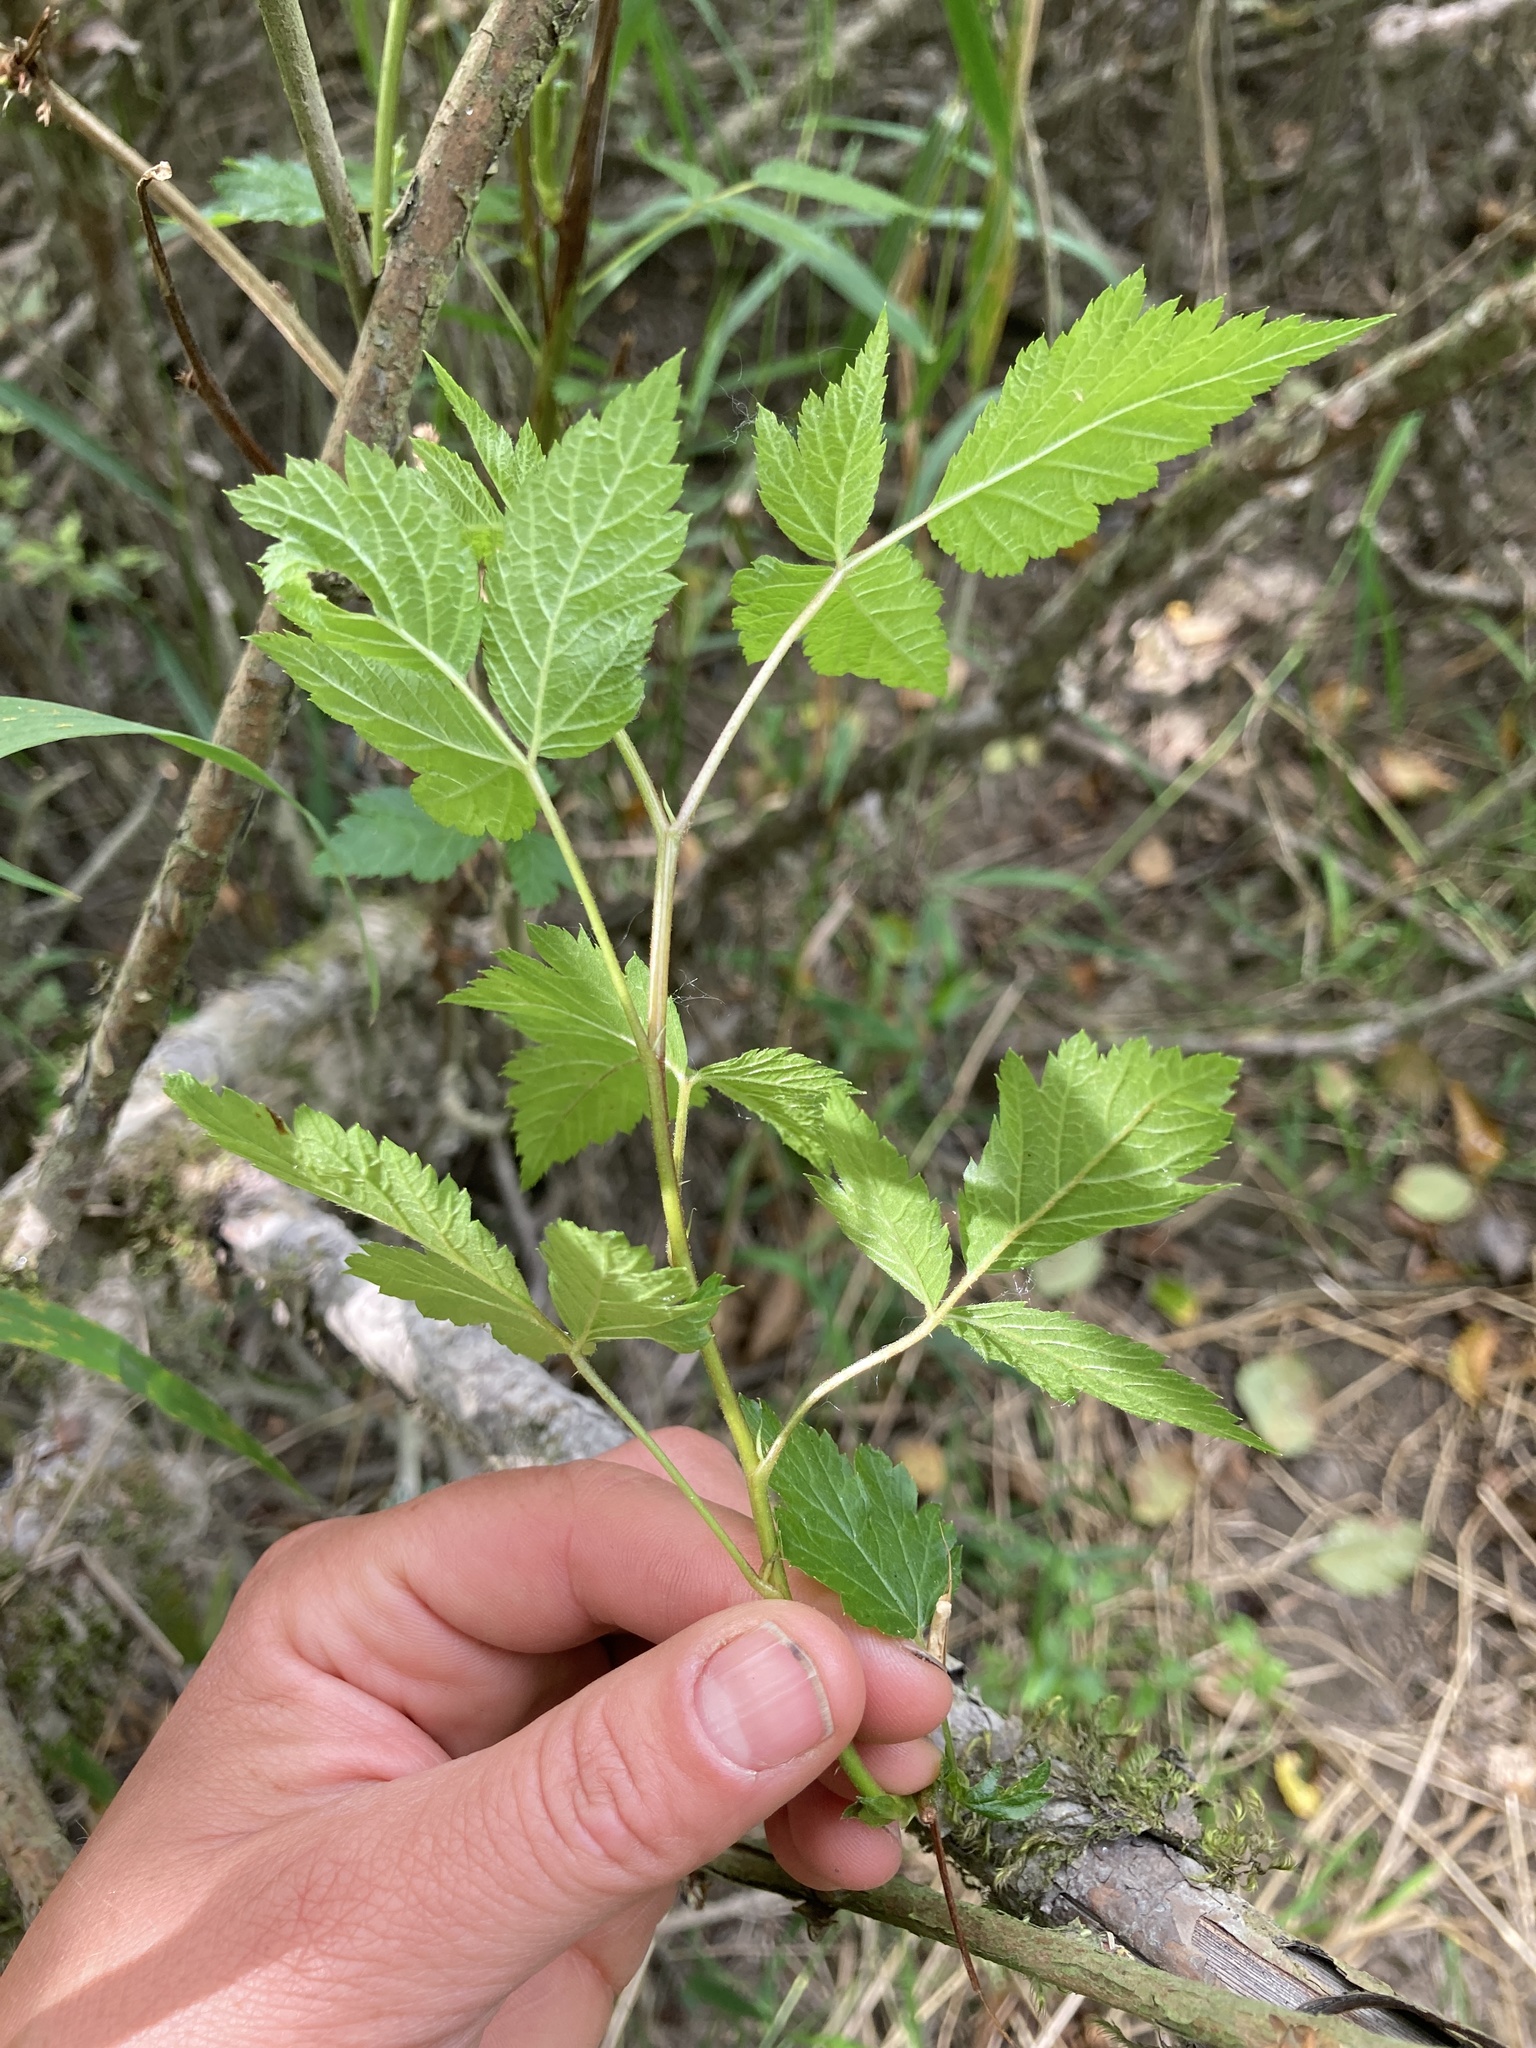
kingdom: Plantae
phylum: Tracheophyta
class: Magnoliopsida
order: Rosales
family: Rosaceae
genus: Rubus
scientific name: Rubus spectabilis
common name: Salmonberry
